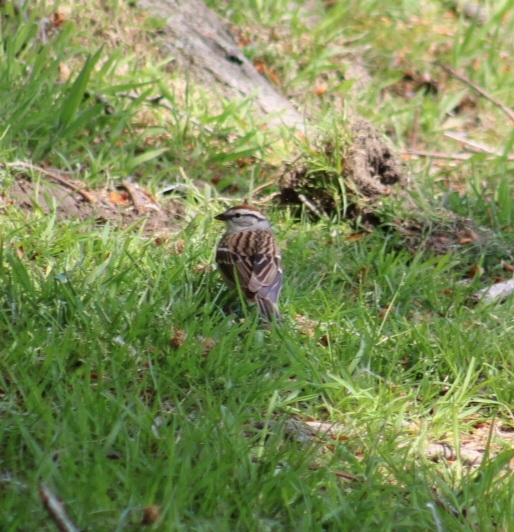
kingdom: Animalia
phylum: Chordata
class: Aves
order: Passeriformes
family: Passerellidae
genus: Spizella
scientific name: Spizella passerina
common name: Chipping sparrow
